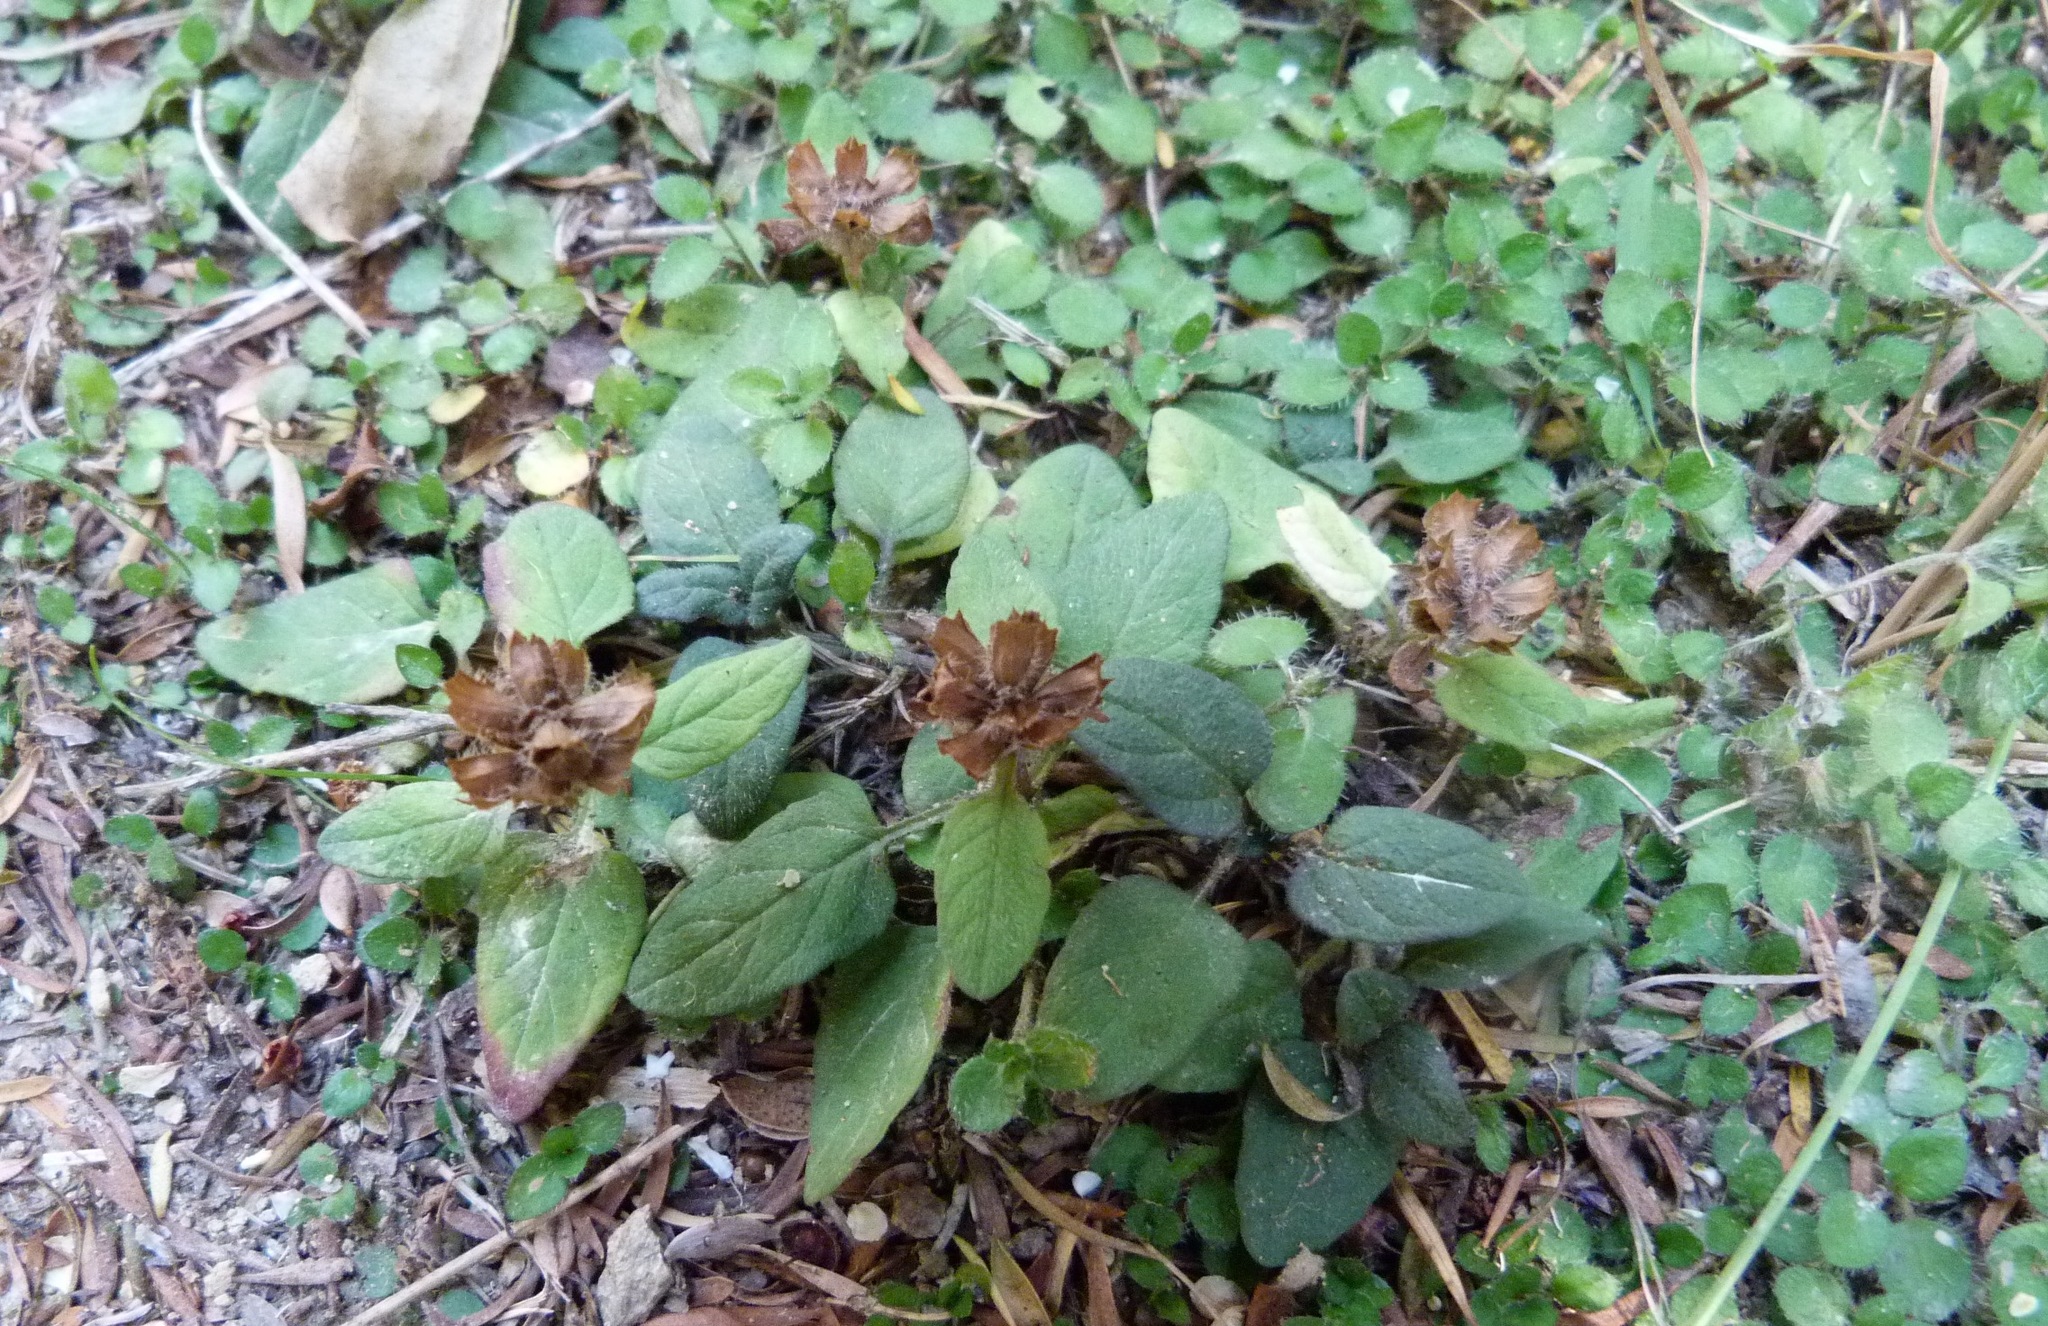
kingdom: Plantae
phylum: Tracheophyta
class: Magnoliopsida
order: Lamiales
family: Lamiaceae
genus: Prunella
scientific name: Prunella vulgaris
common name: Heal-all
